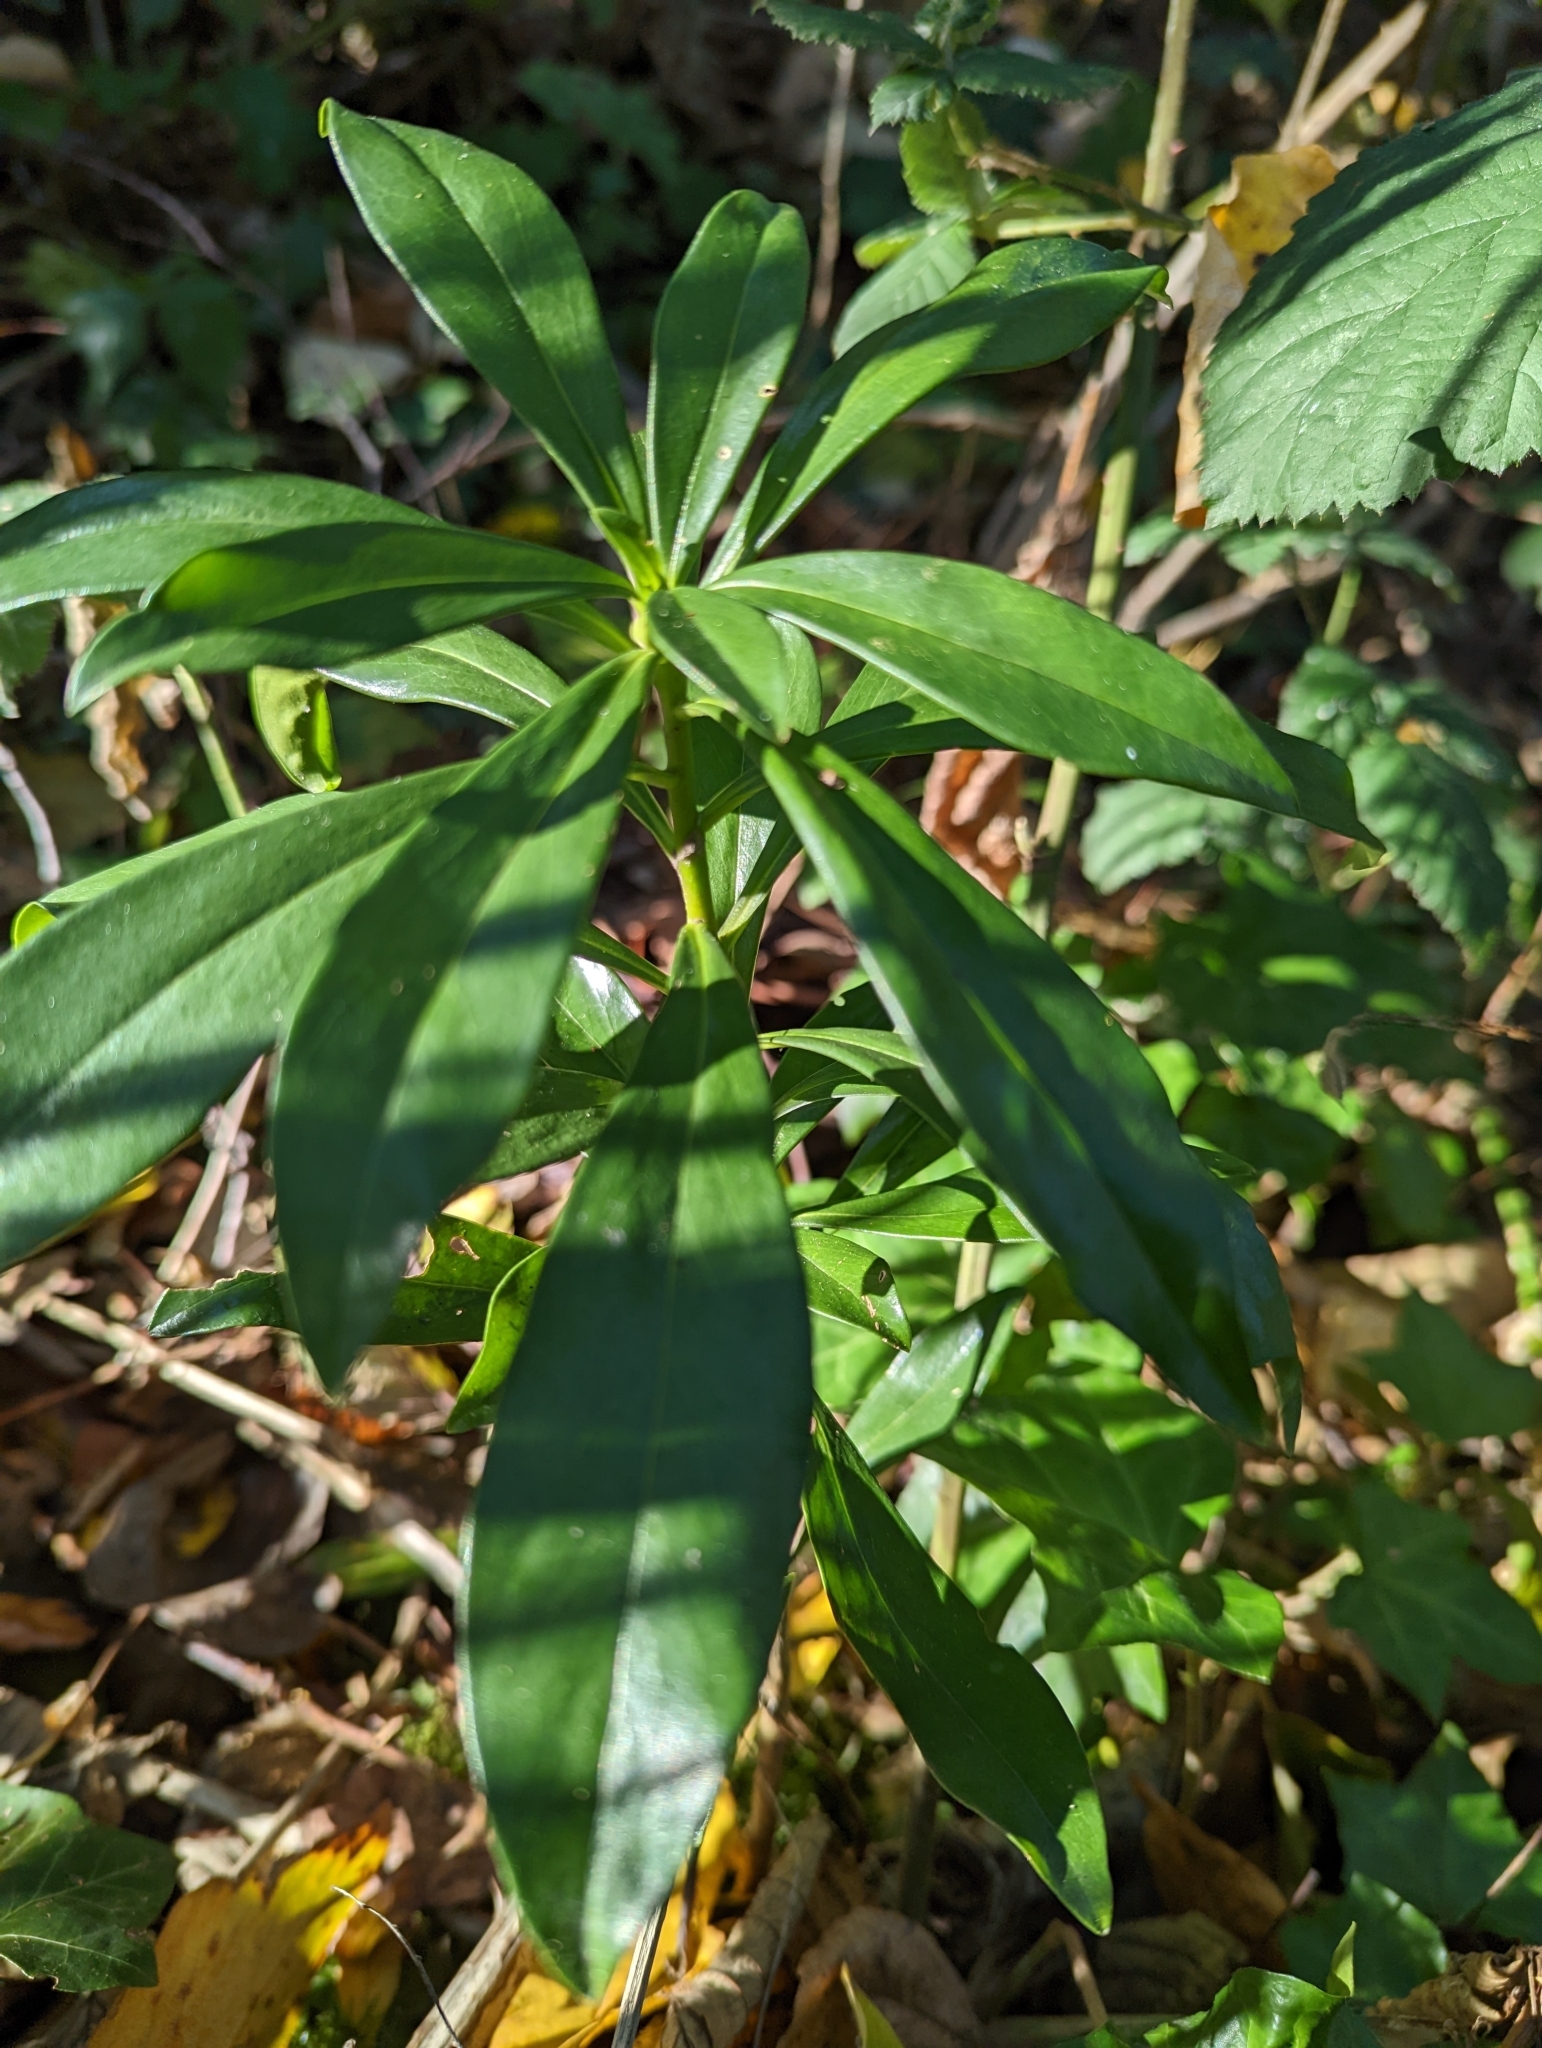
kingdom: Plantae
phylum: Tracheophyta
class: Magnoliopsida
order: Malvales
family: Thymelaeaceae
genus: Daphne
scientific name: Daphne laureola
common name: Spurge-laurel
